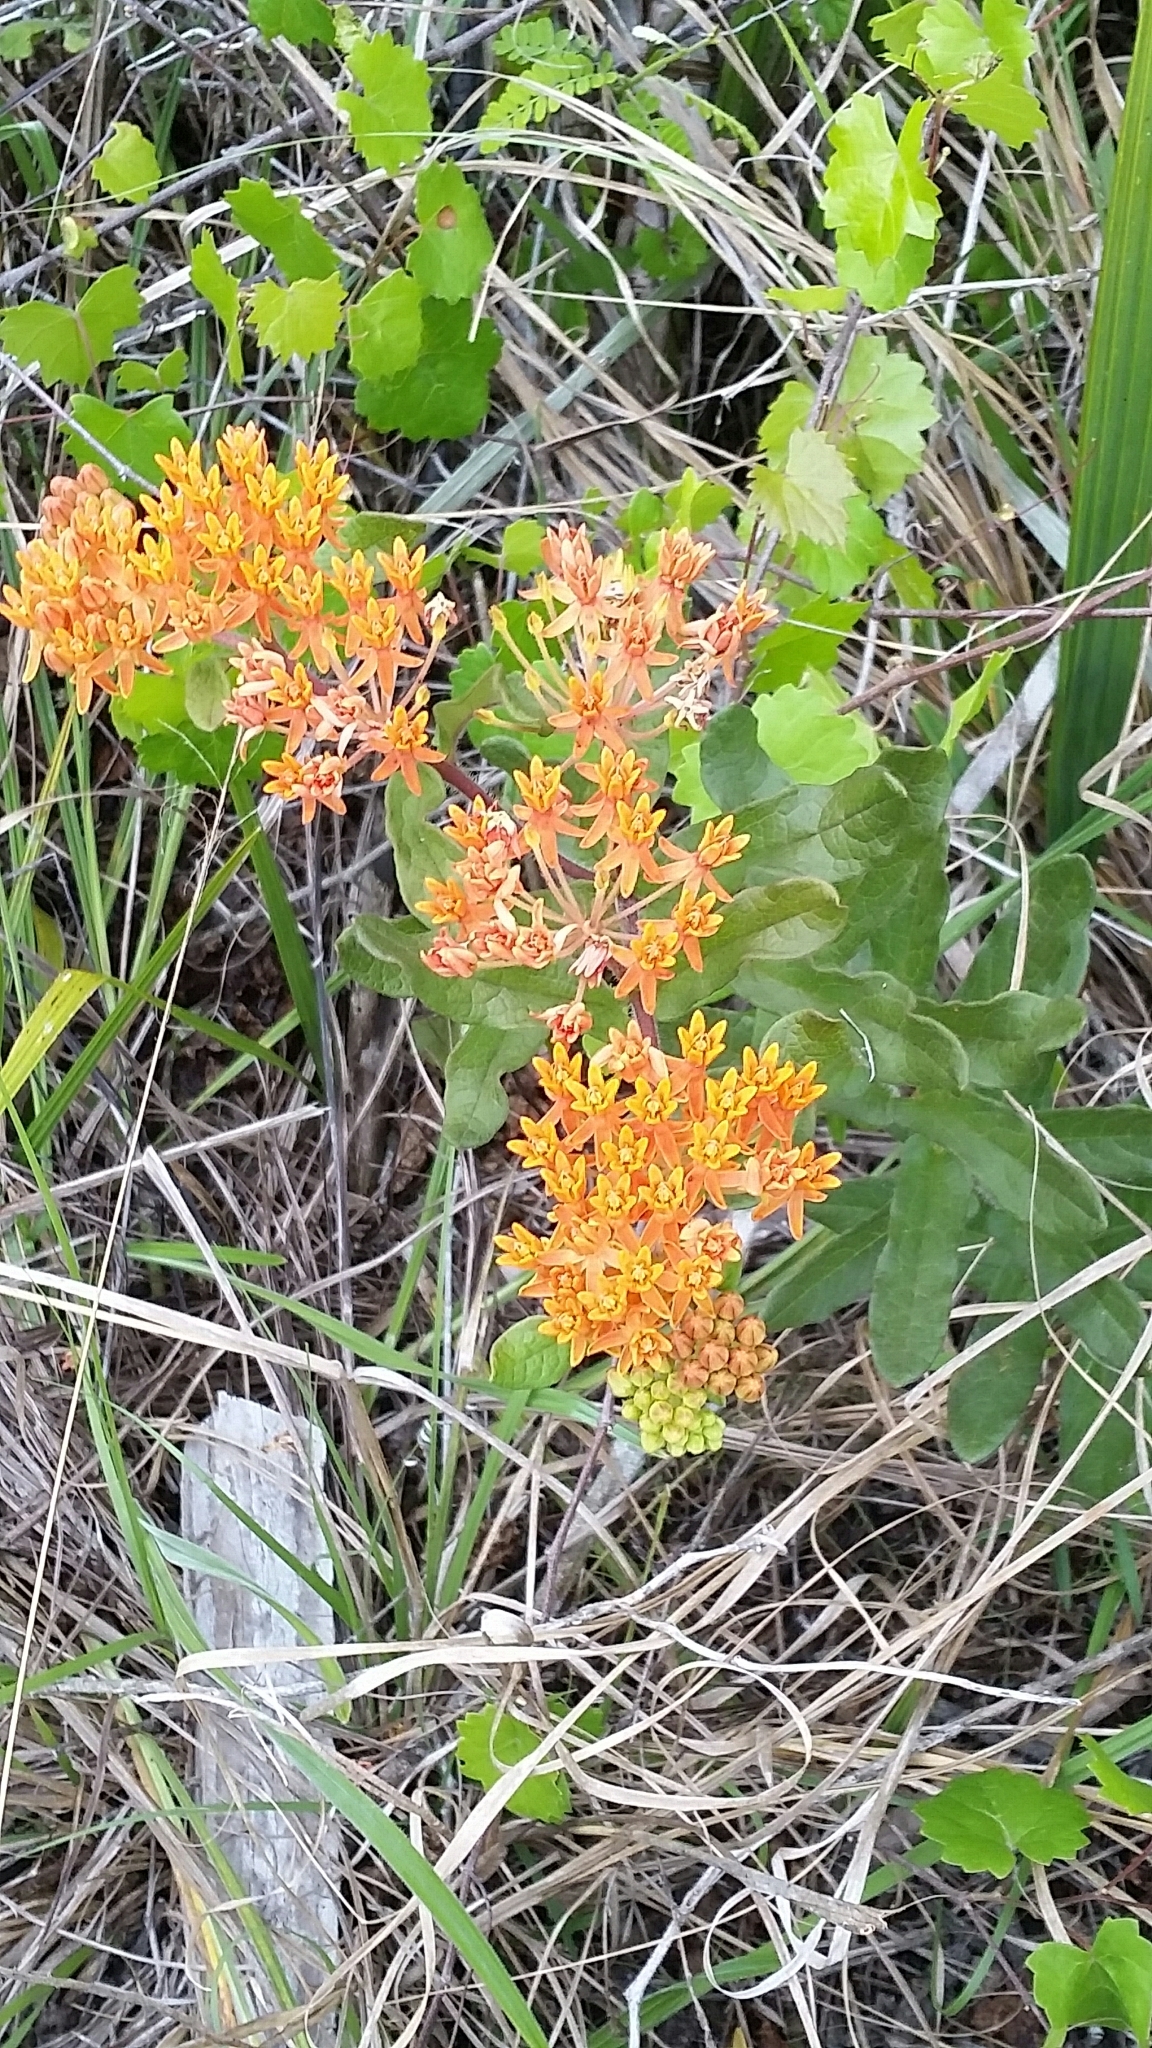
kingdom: Plantae
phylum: Tracheophyta
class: Magnoliopsida
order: Gentianales
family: Apocynaceae
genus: Asclepias
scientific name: Asclepias tuberosa
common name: Butterfly milkweed
